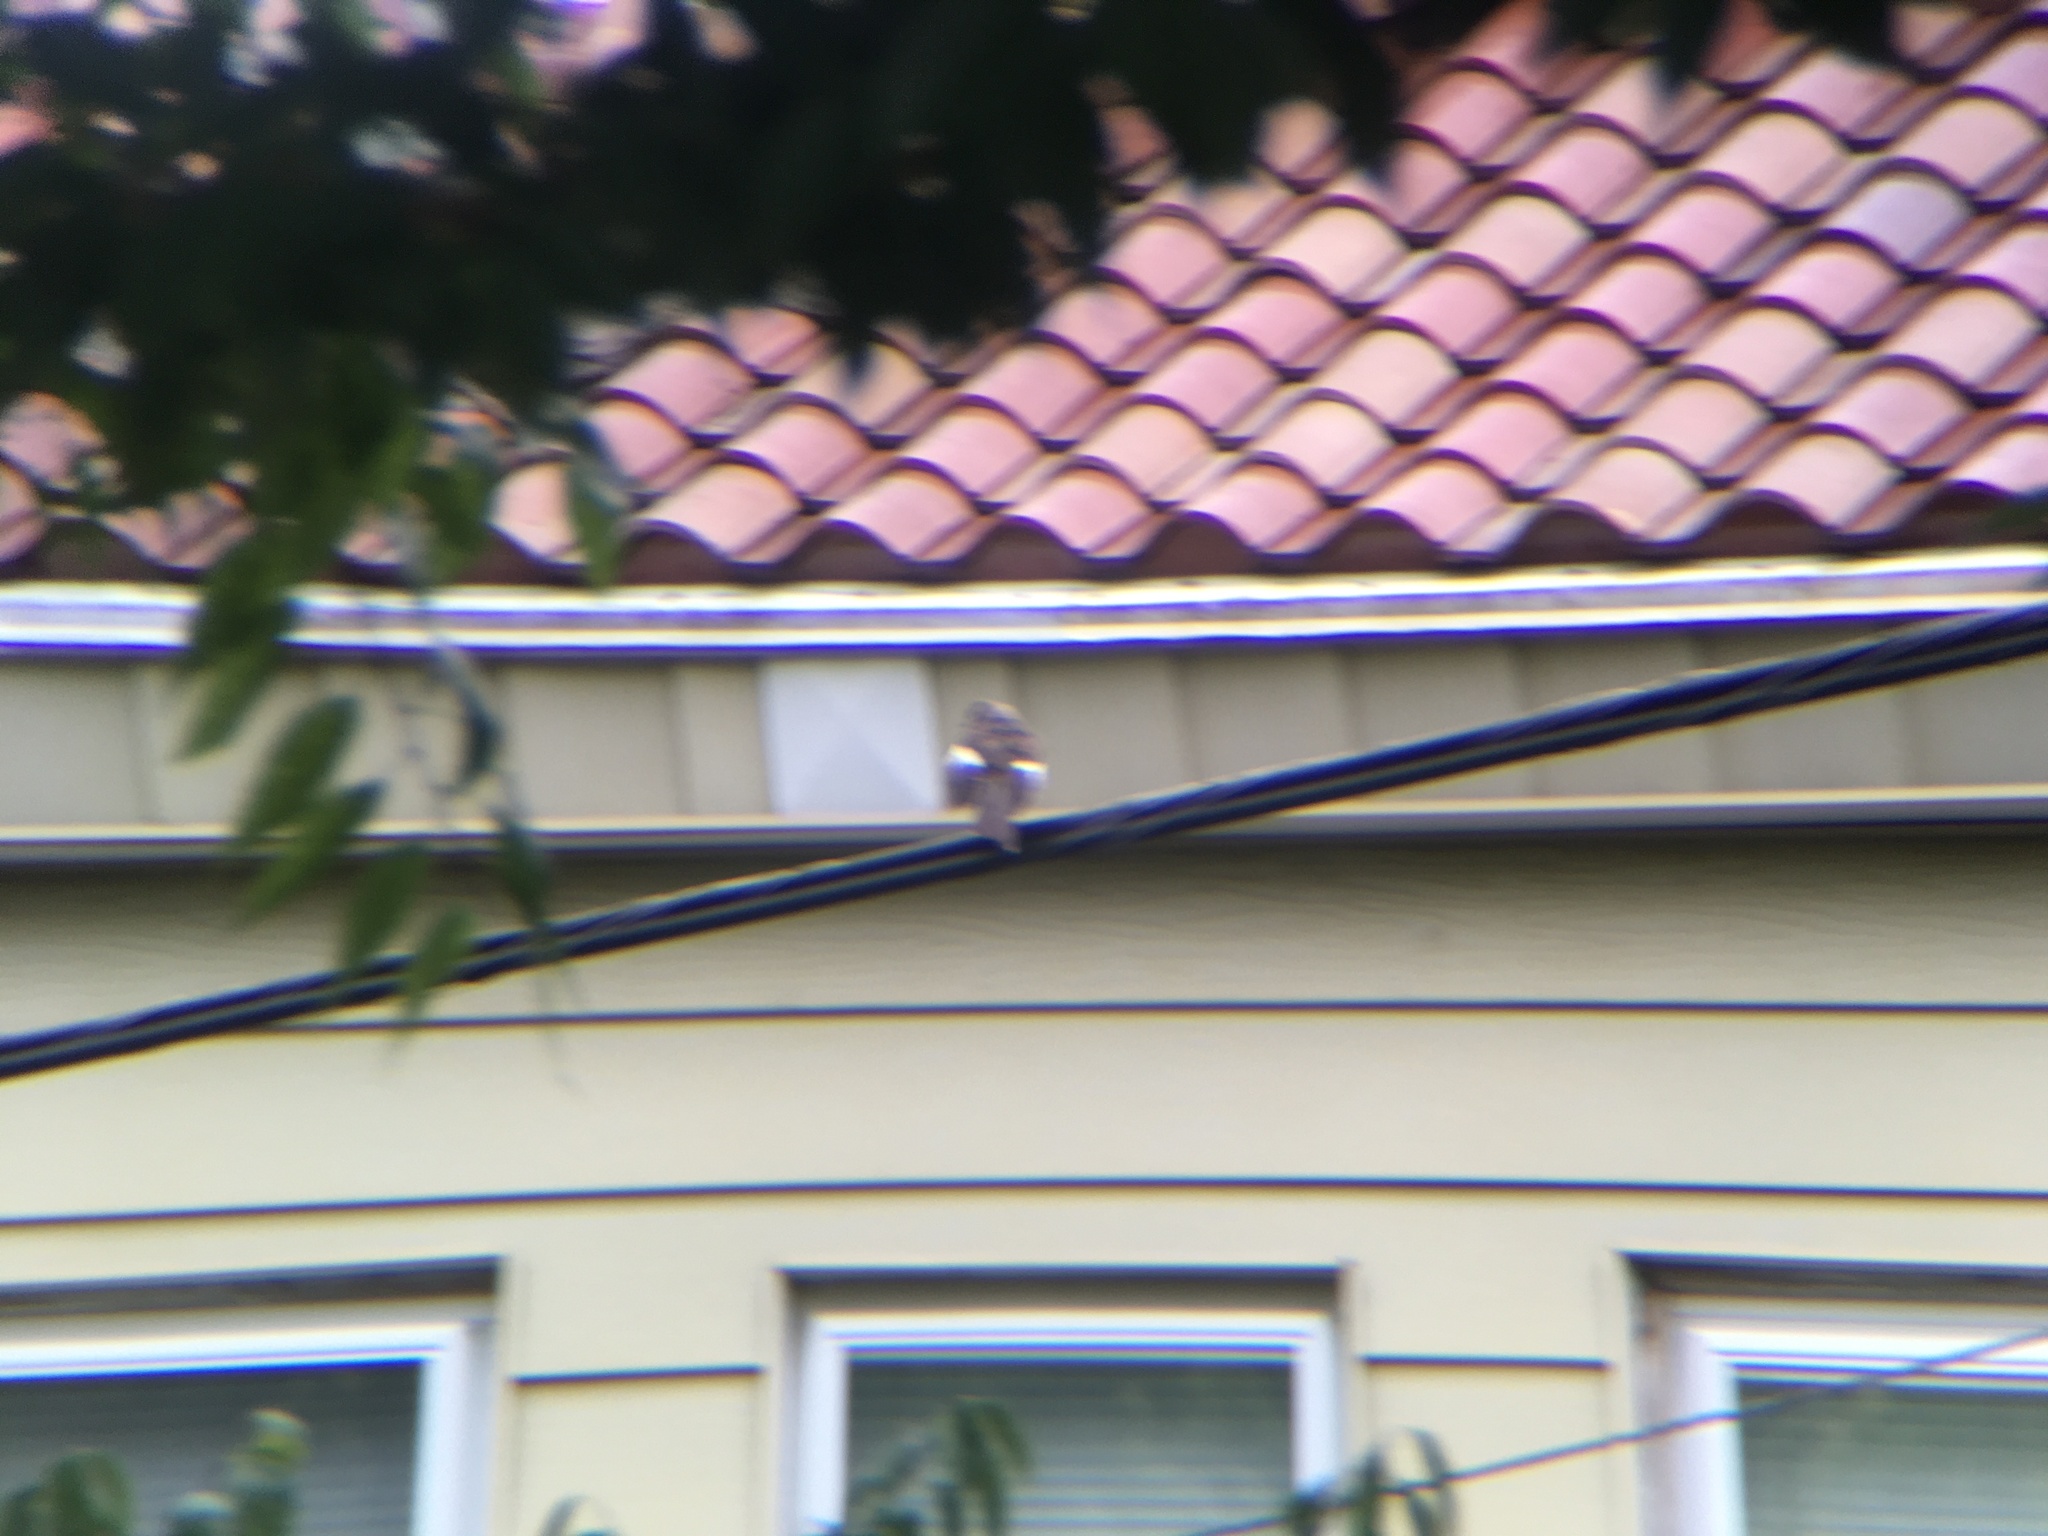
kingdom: Animalia
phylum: Chordata
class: Aves
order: Passeriformes
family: Mimidae
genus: Mimus
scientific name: Mimus polyglottos
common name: Northern mockingbird
